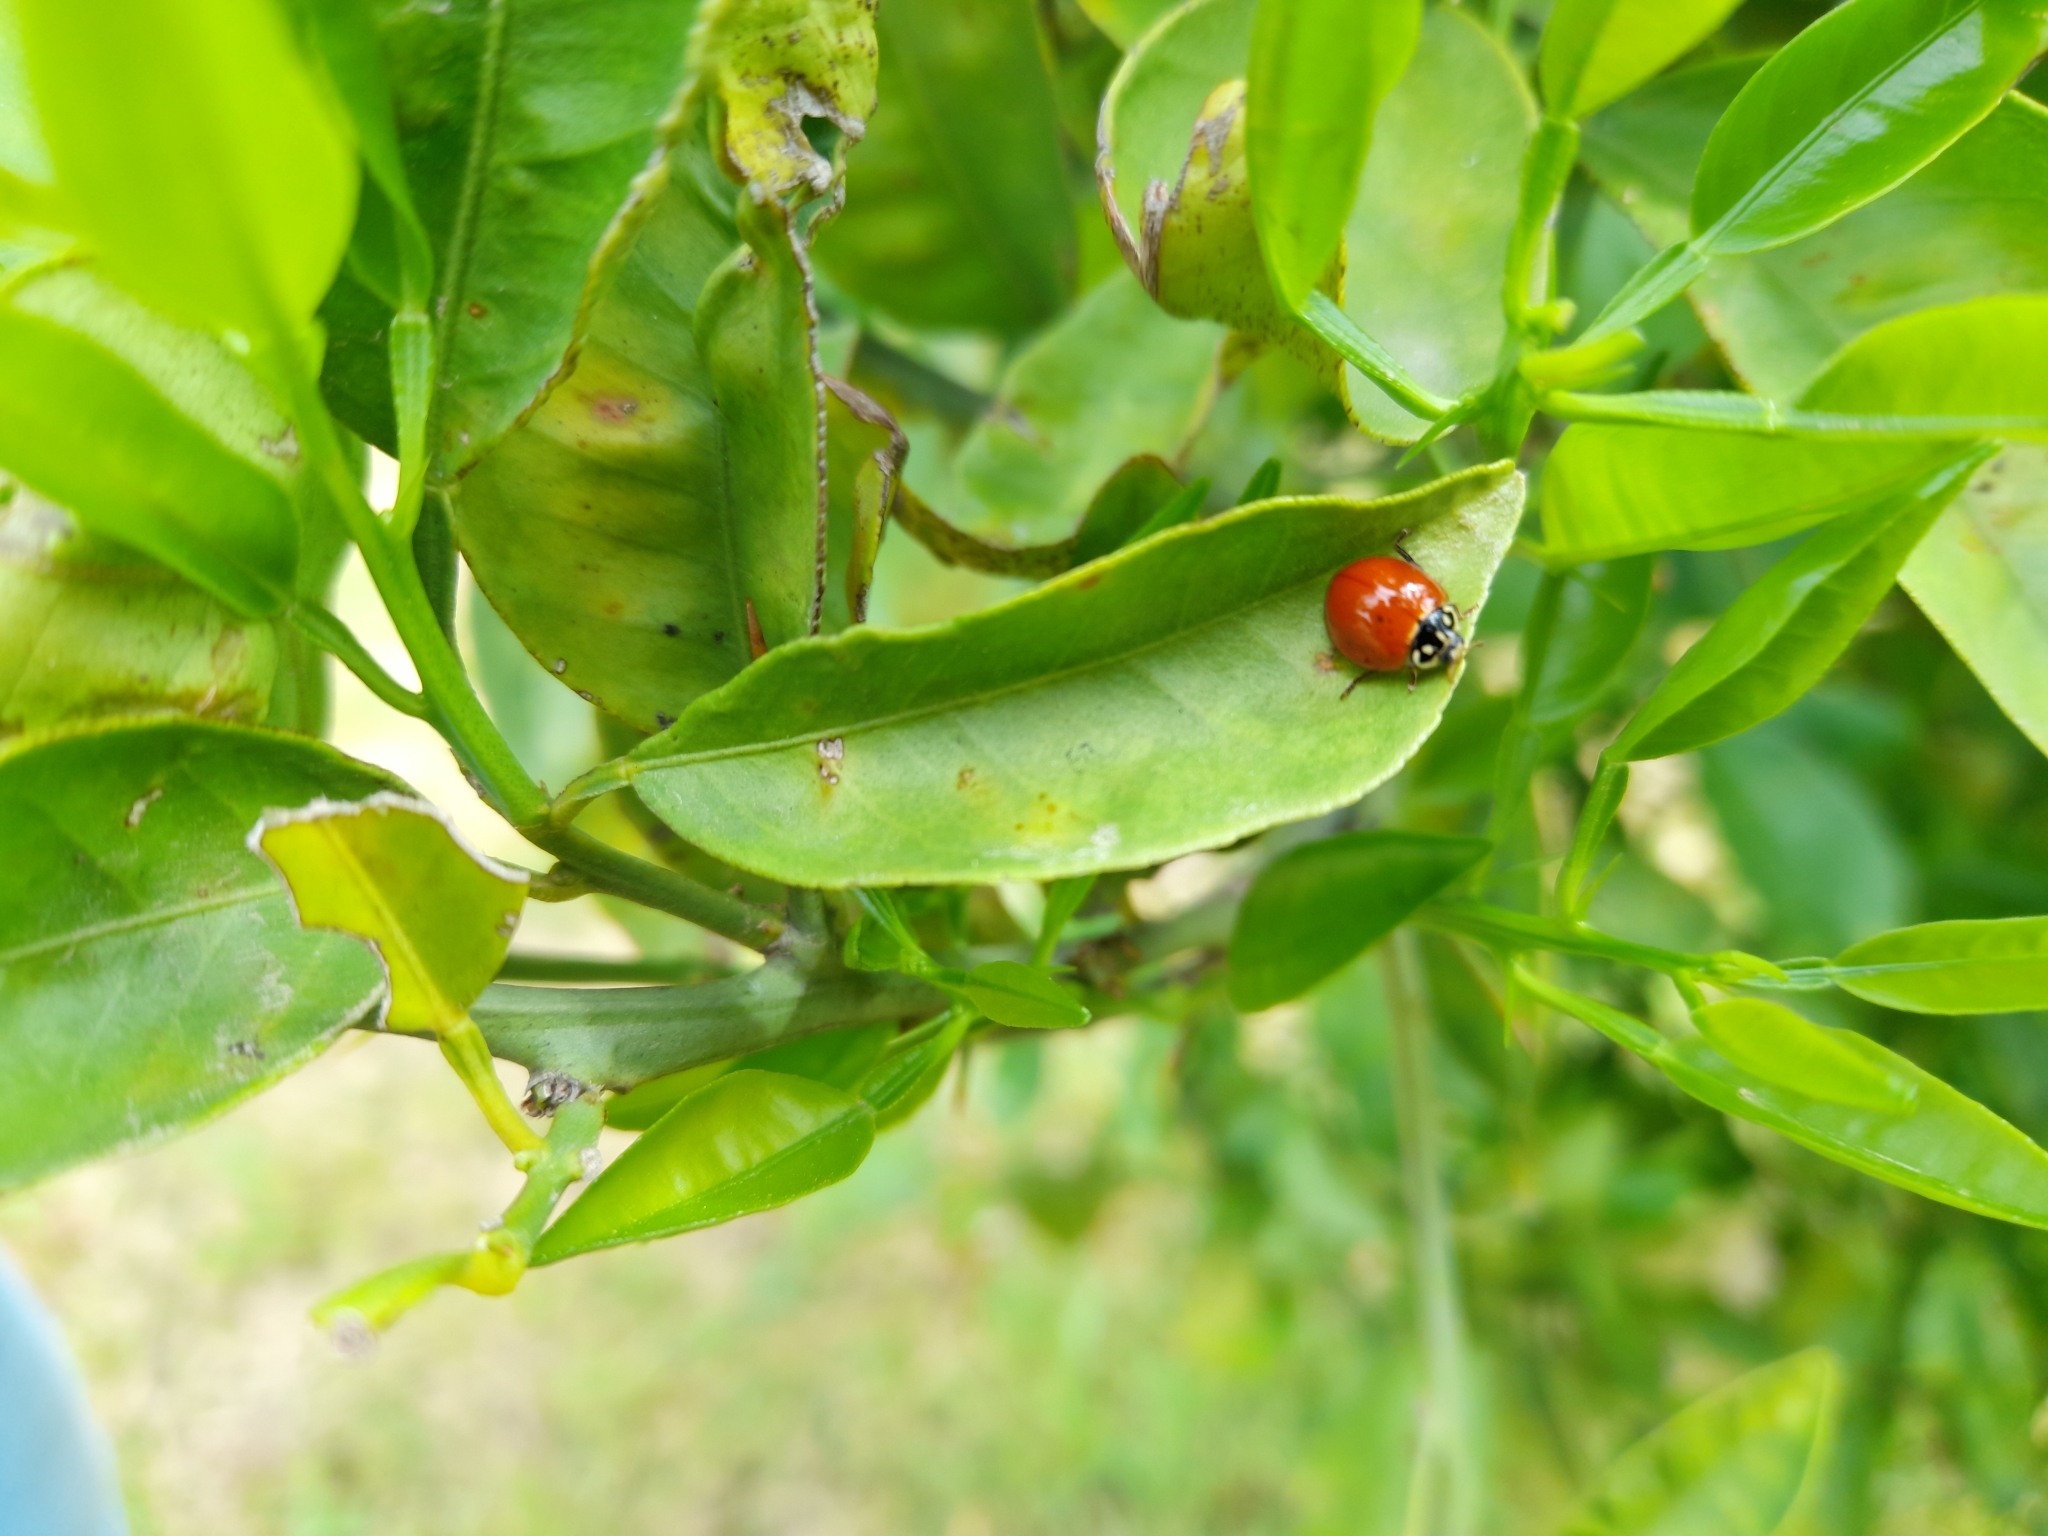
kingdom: Animalia
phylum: Arthropoda
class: Insecta
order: Coleoptera
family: Coccinellidae
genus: Cycloneda
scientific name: Cycloneda sanguinea
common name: Ladybird beetle
